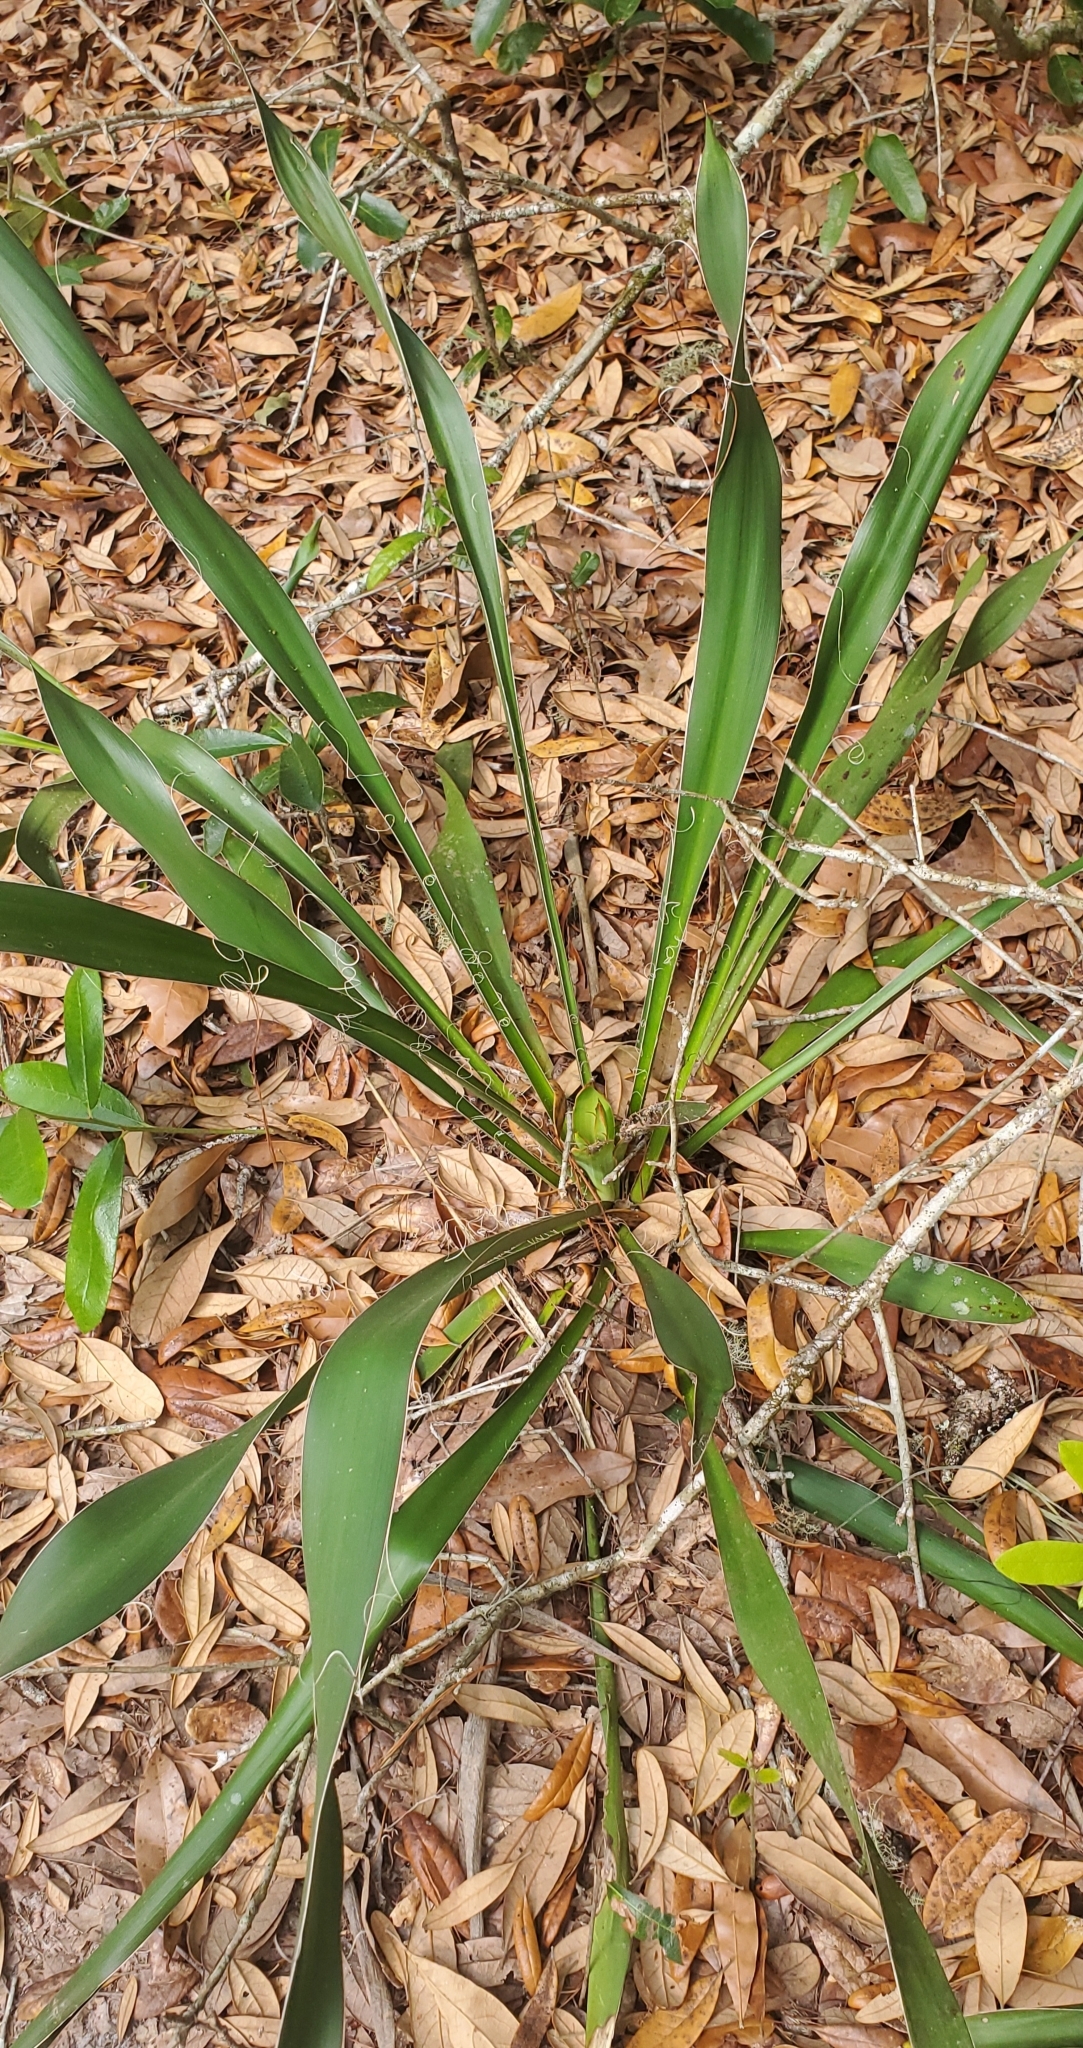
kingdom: Plantae
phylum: Tracheophyta
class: Liliopsida
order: Asparagales
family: Asparagaceae
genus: Yucca
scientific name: Yucca filamentosa
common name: Adam's-needle
